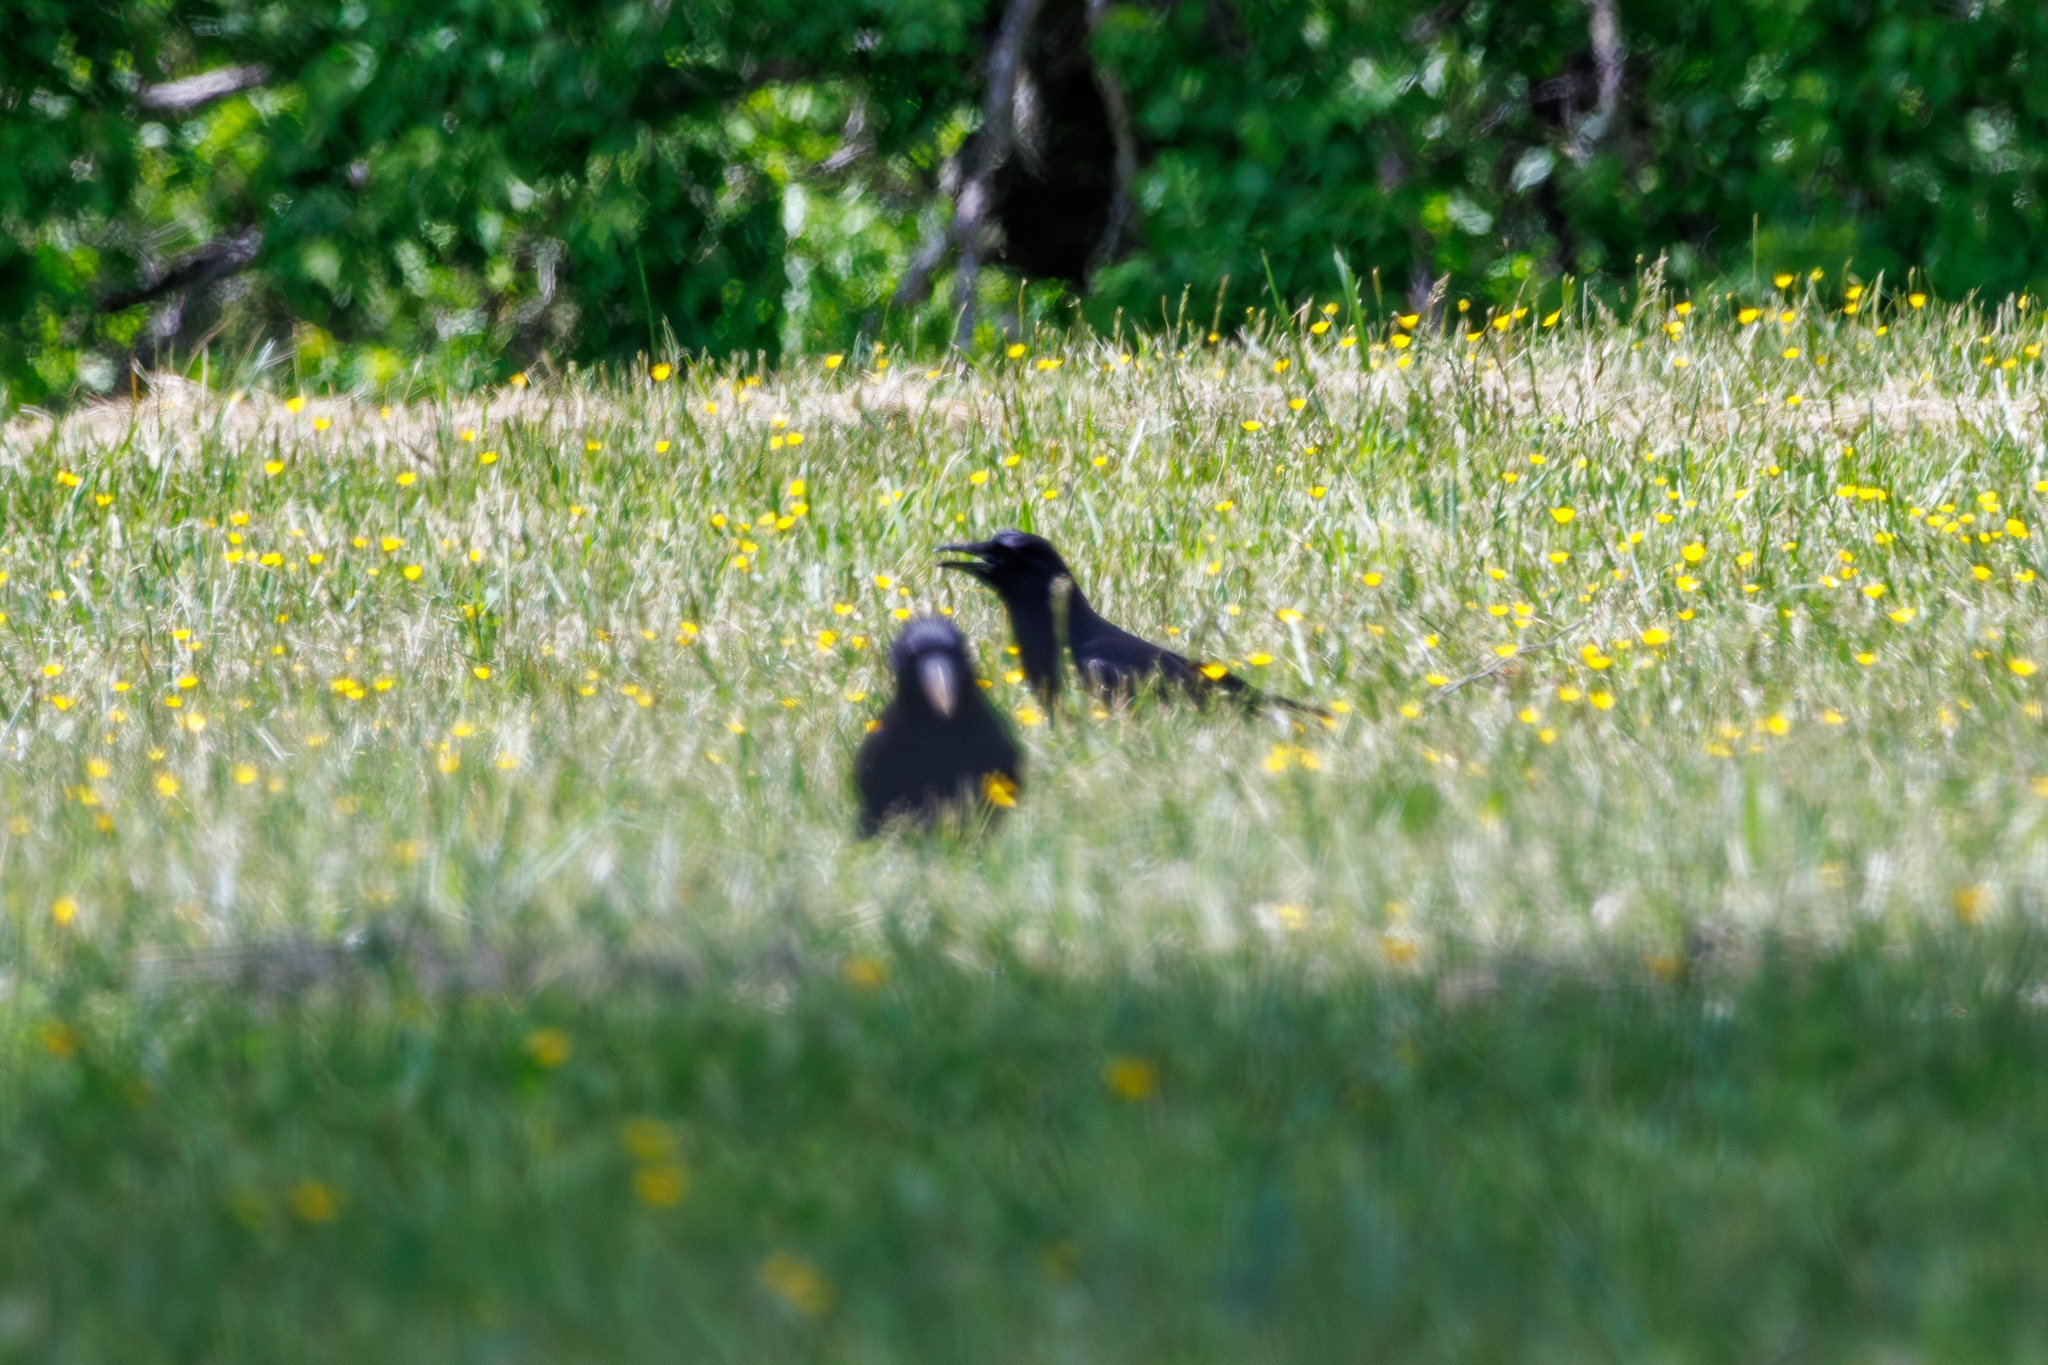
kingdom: Animalia
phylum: Chordata
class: Aves
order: Passeriformes
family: Corvidae
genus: Corvus
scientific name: Corvus brachyrhynchos
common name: American crow
